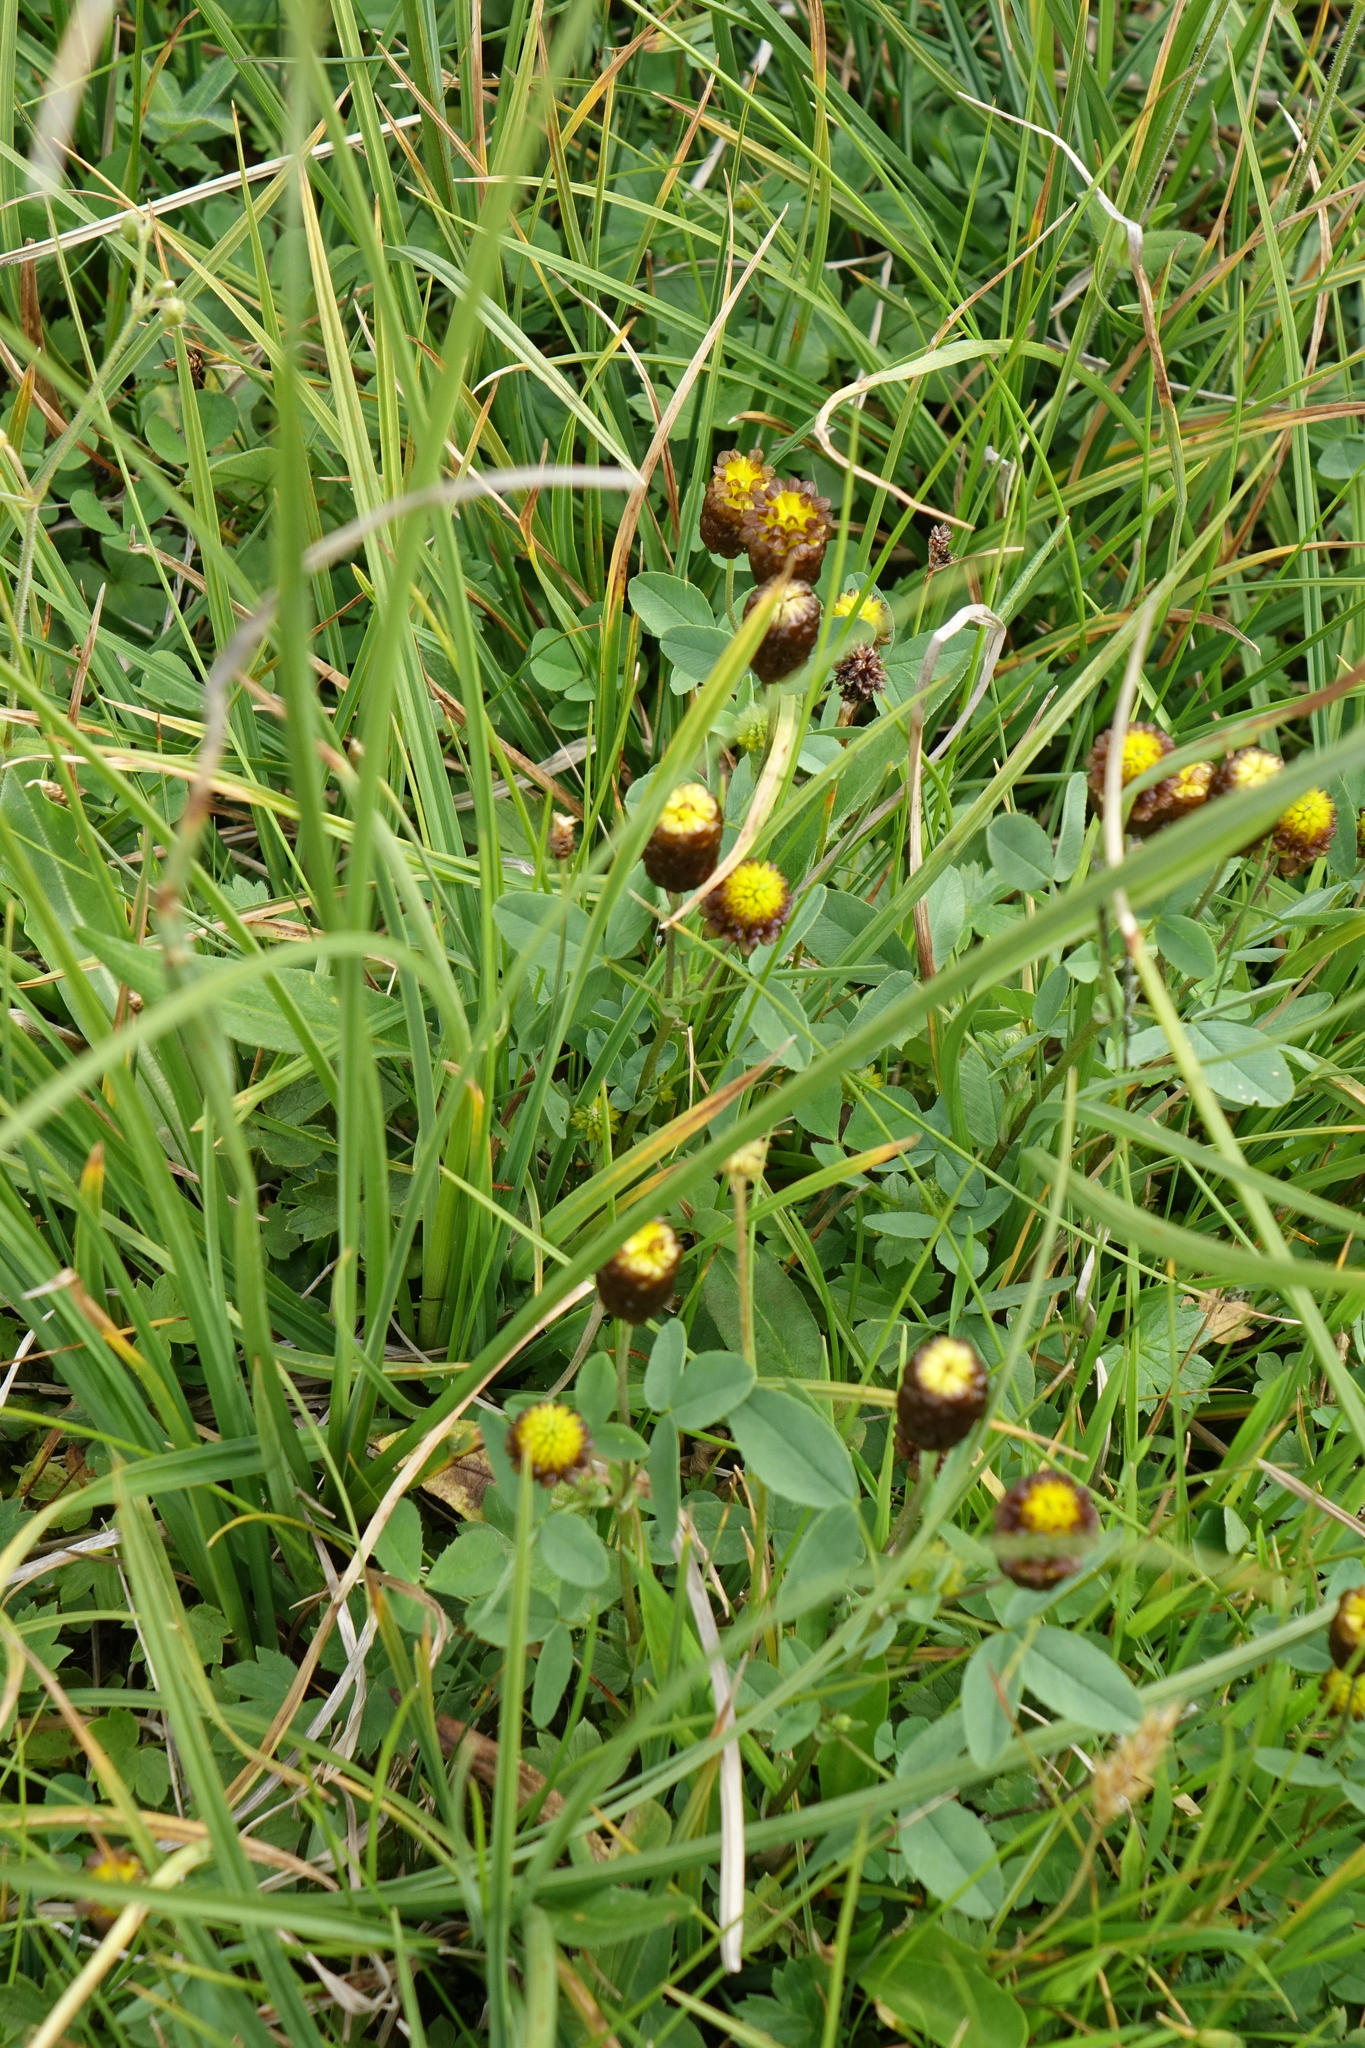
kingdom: Plantae
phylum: Tracheophyta
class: Magnoliopsida
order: Fabales
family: Fabaceae
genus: Trifolium
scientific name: Trifolium spadiceum
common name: Brown moor clover
